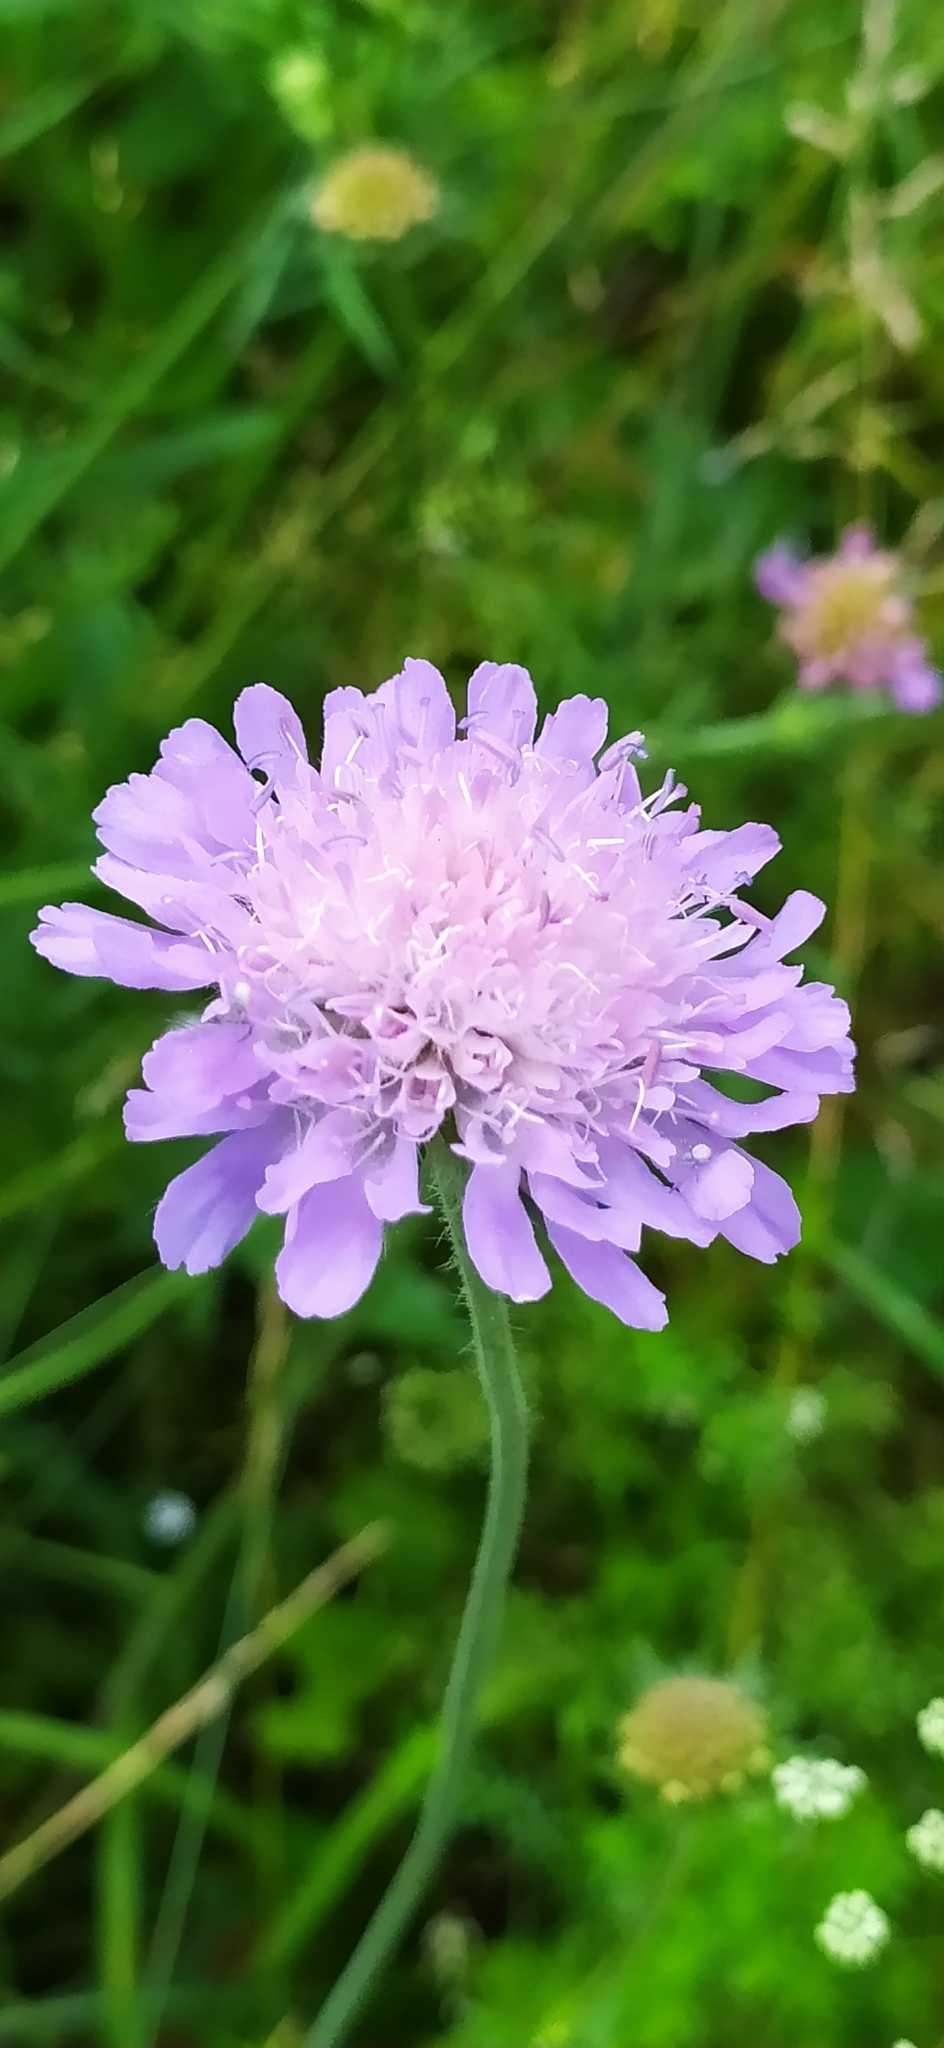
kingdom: Plantae
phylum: Tracheophyta
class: Magnoliopsida
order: Dipsacales
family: Caprifoliaceae
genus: Knautia
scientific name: Knautia arvensis
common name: Field scabiosa
